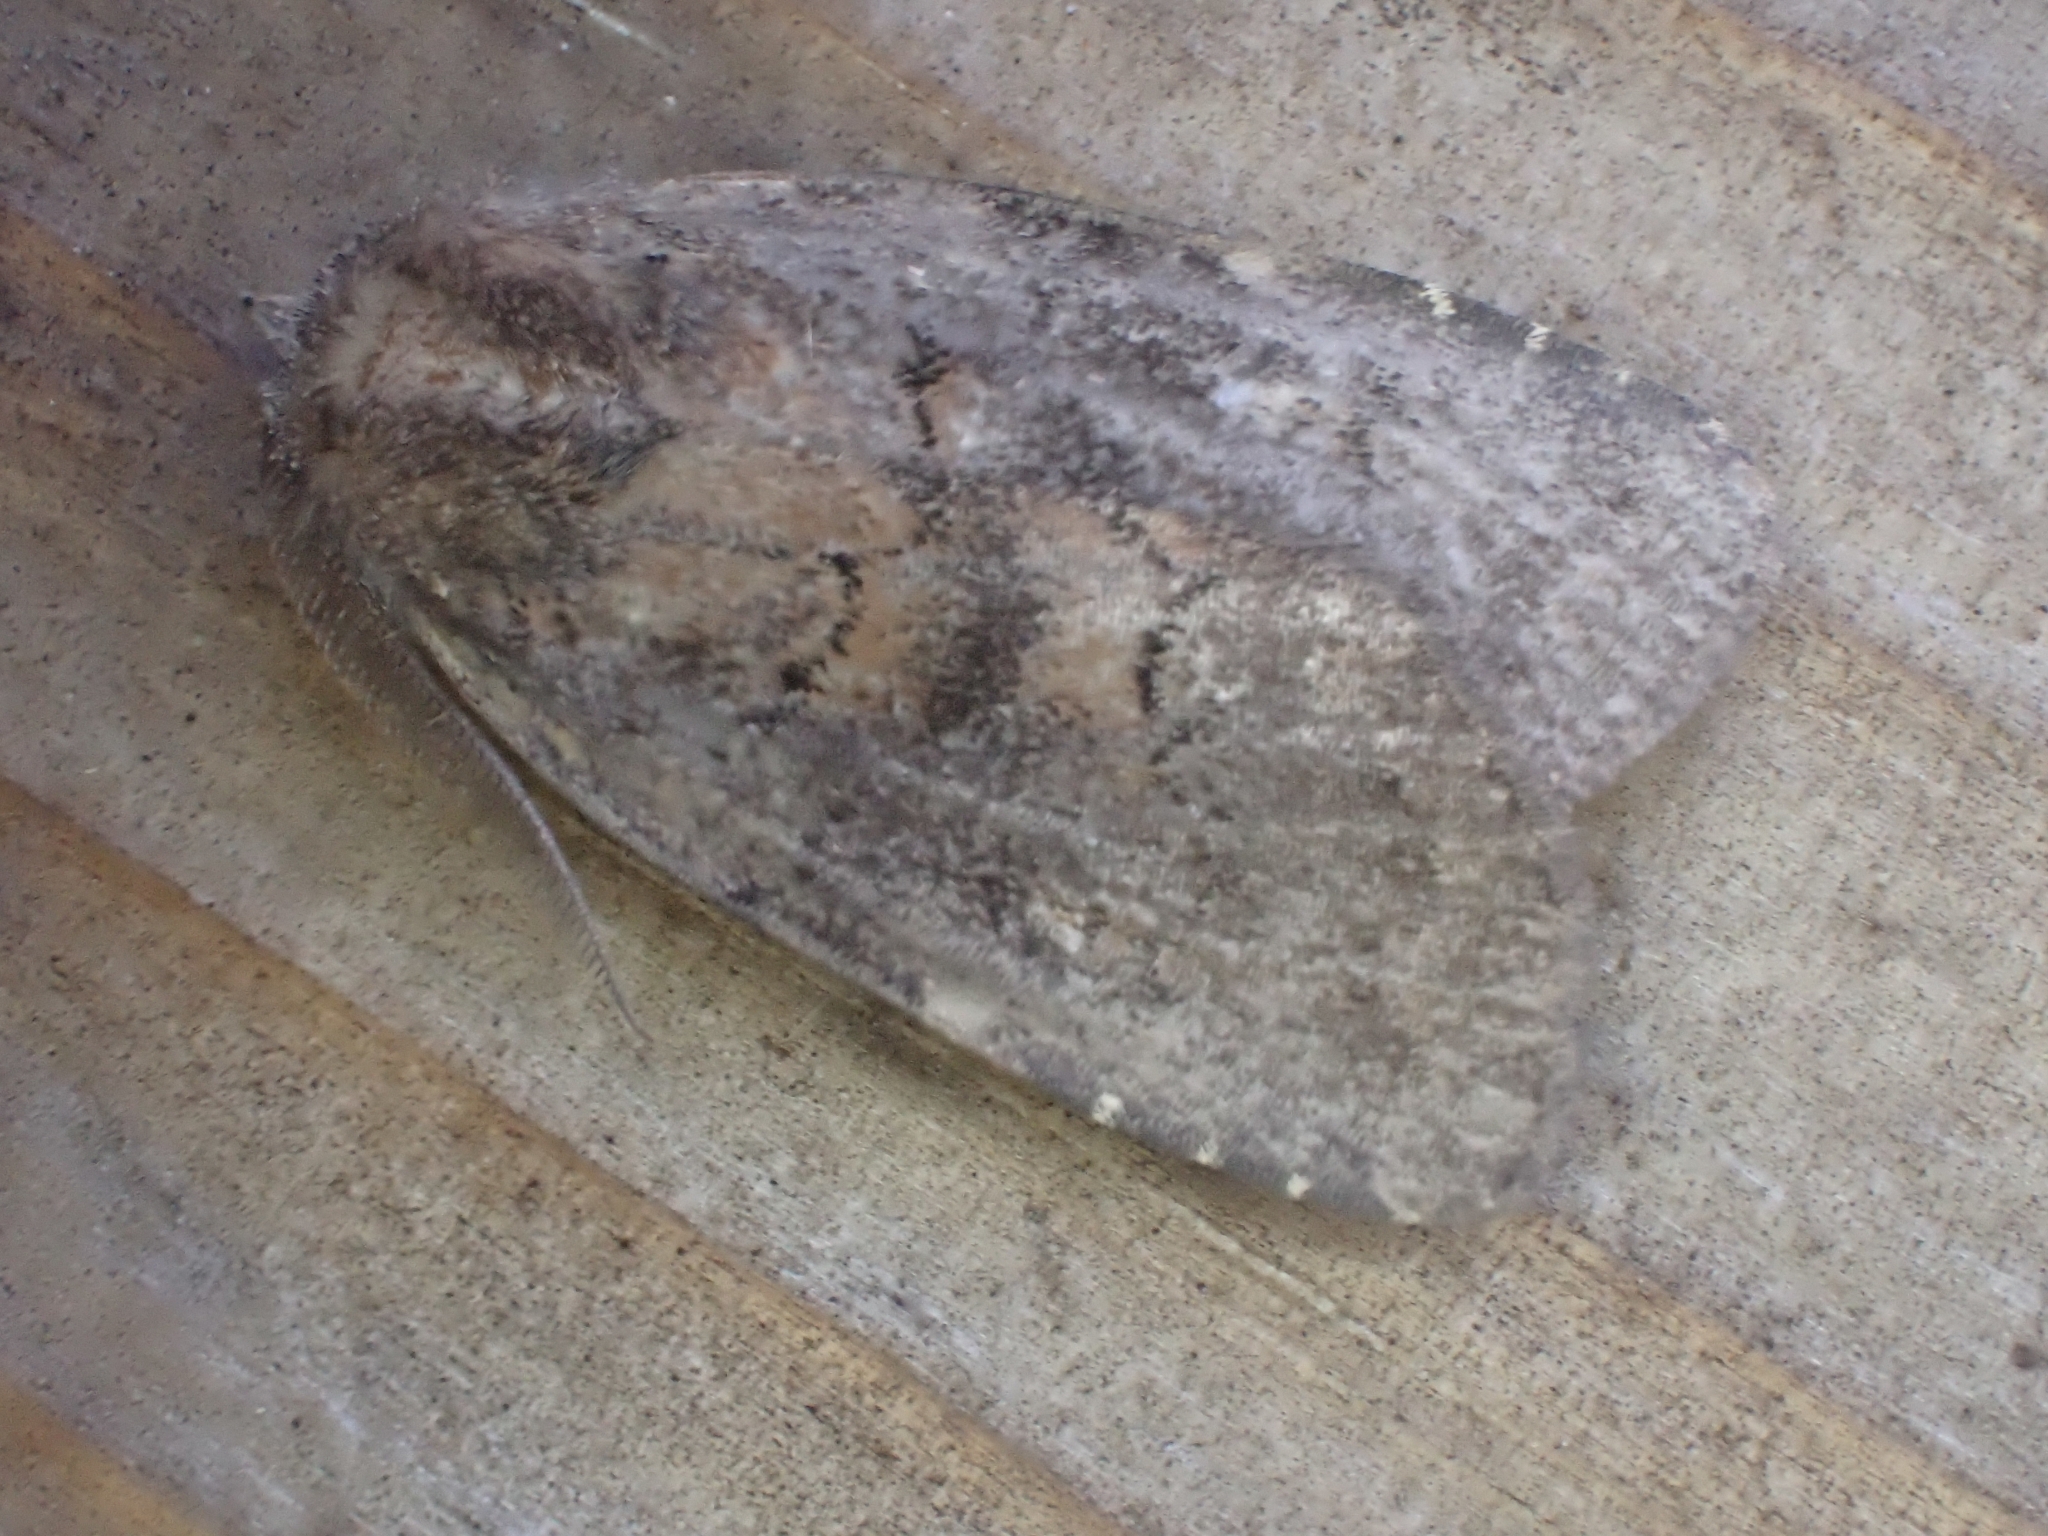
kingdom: Animalia
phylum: Arthropoda
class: Insecta
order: Lepidoptera
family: Noctuidae
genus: Charanyca
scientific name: Charanyca ferruginea
